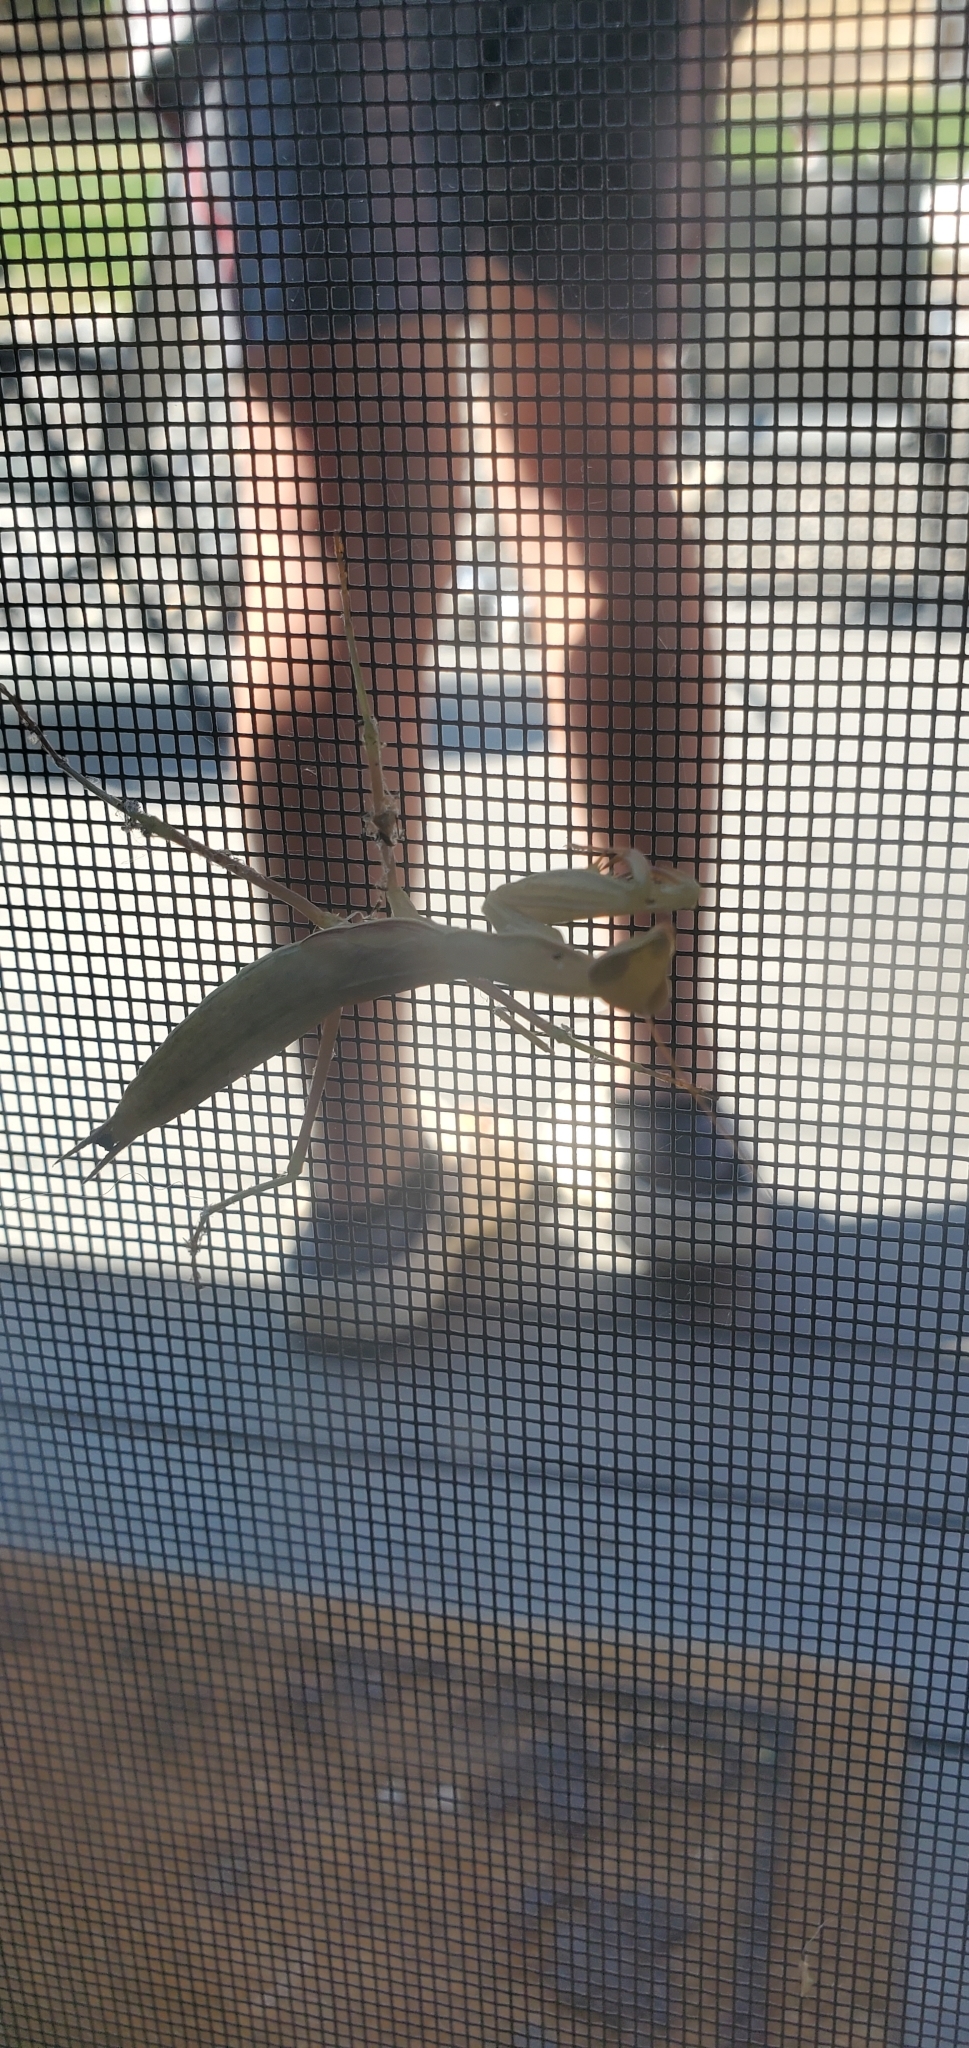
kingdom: Animalia
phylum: Arthropoda
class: Insecta
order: Mantodea
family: Mantidae
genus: Mantis
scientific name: Mantis religiosa
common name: Praying mantis
